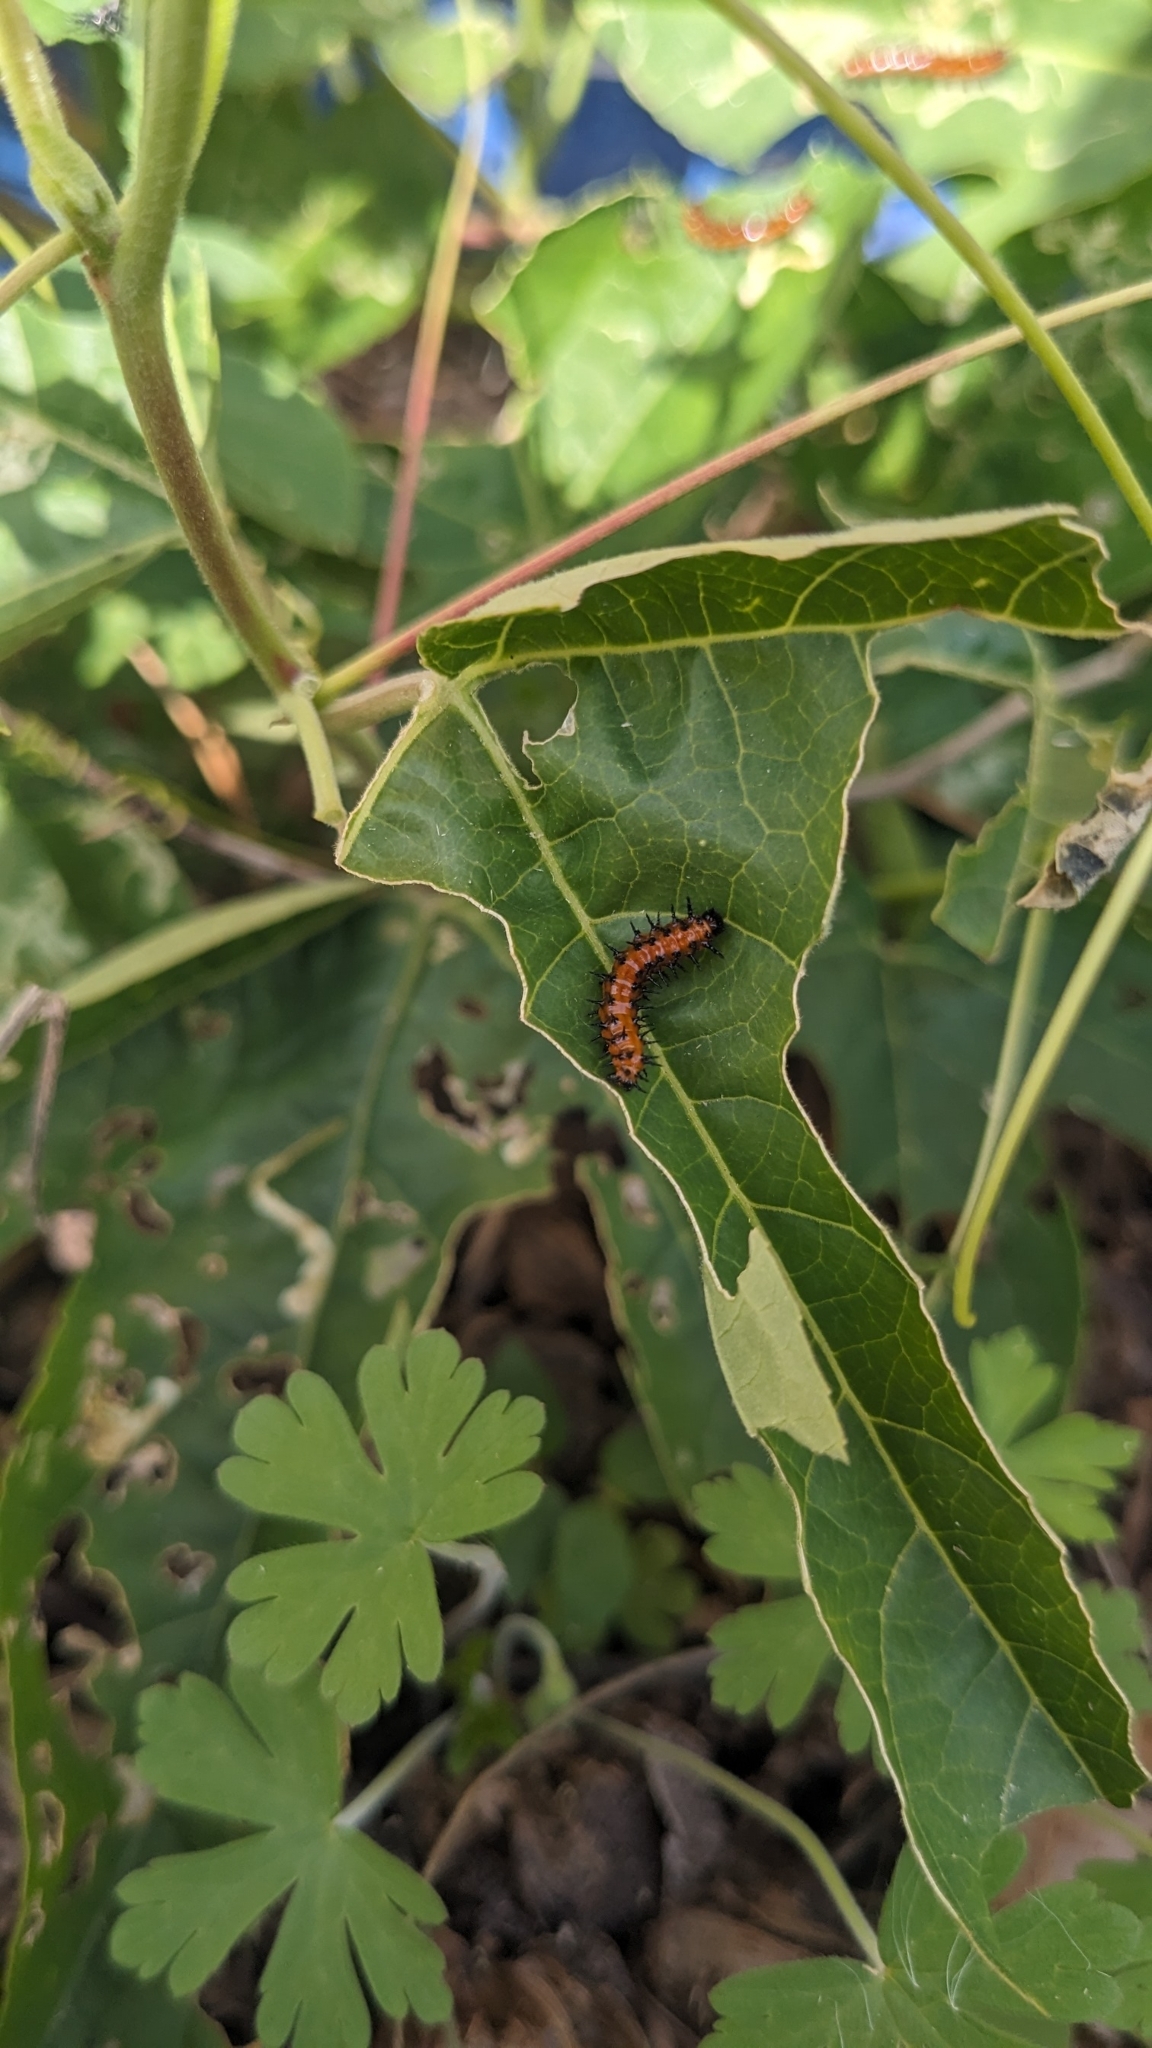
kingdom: Animalia
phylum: Arthropoda
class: Insecta
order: Lepidoptera
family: Nymphalidae
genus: Dione
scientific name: Dione vanillae
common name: Gulf fritillary
